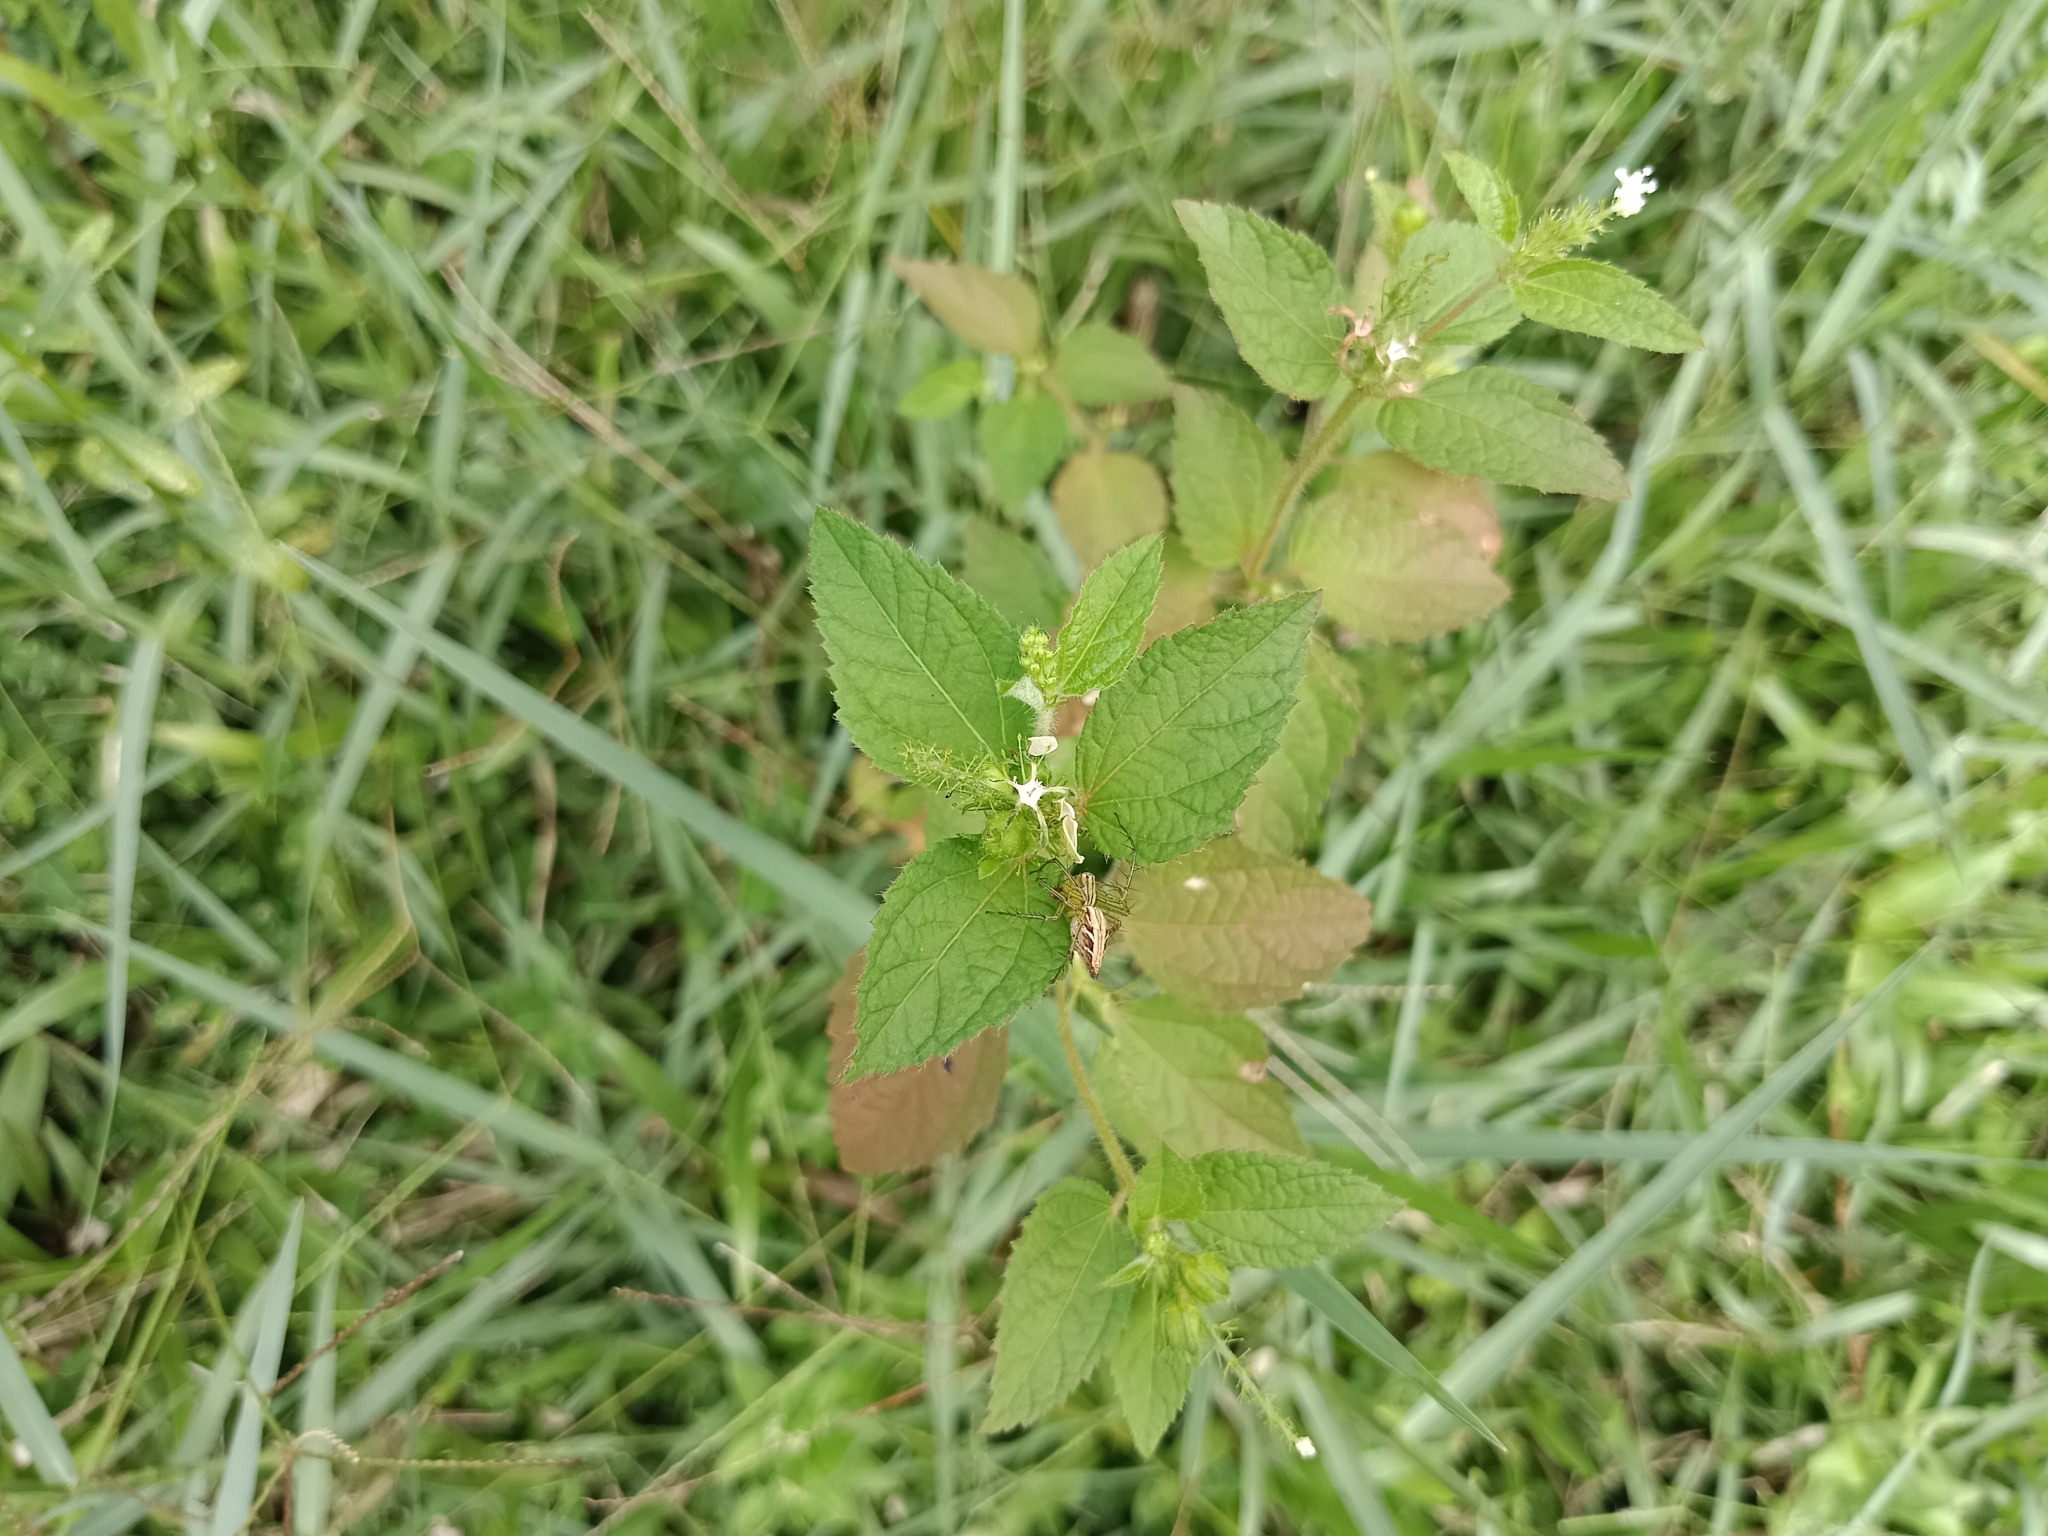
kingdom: Plantae
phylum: Tracheophyta
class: Magnoliopsida
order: Malpighiales
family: Euphorbiaceae
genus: Croton
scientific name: Croton hirtus
